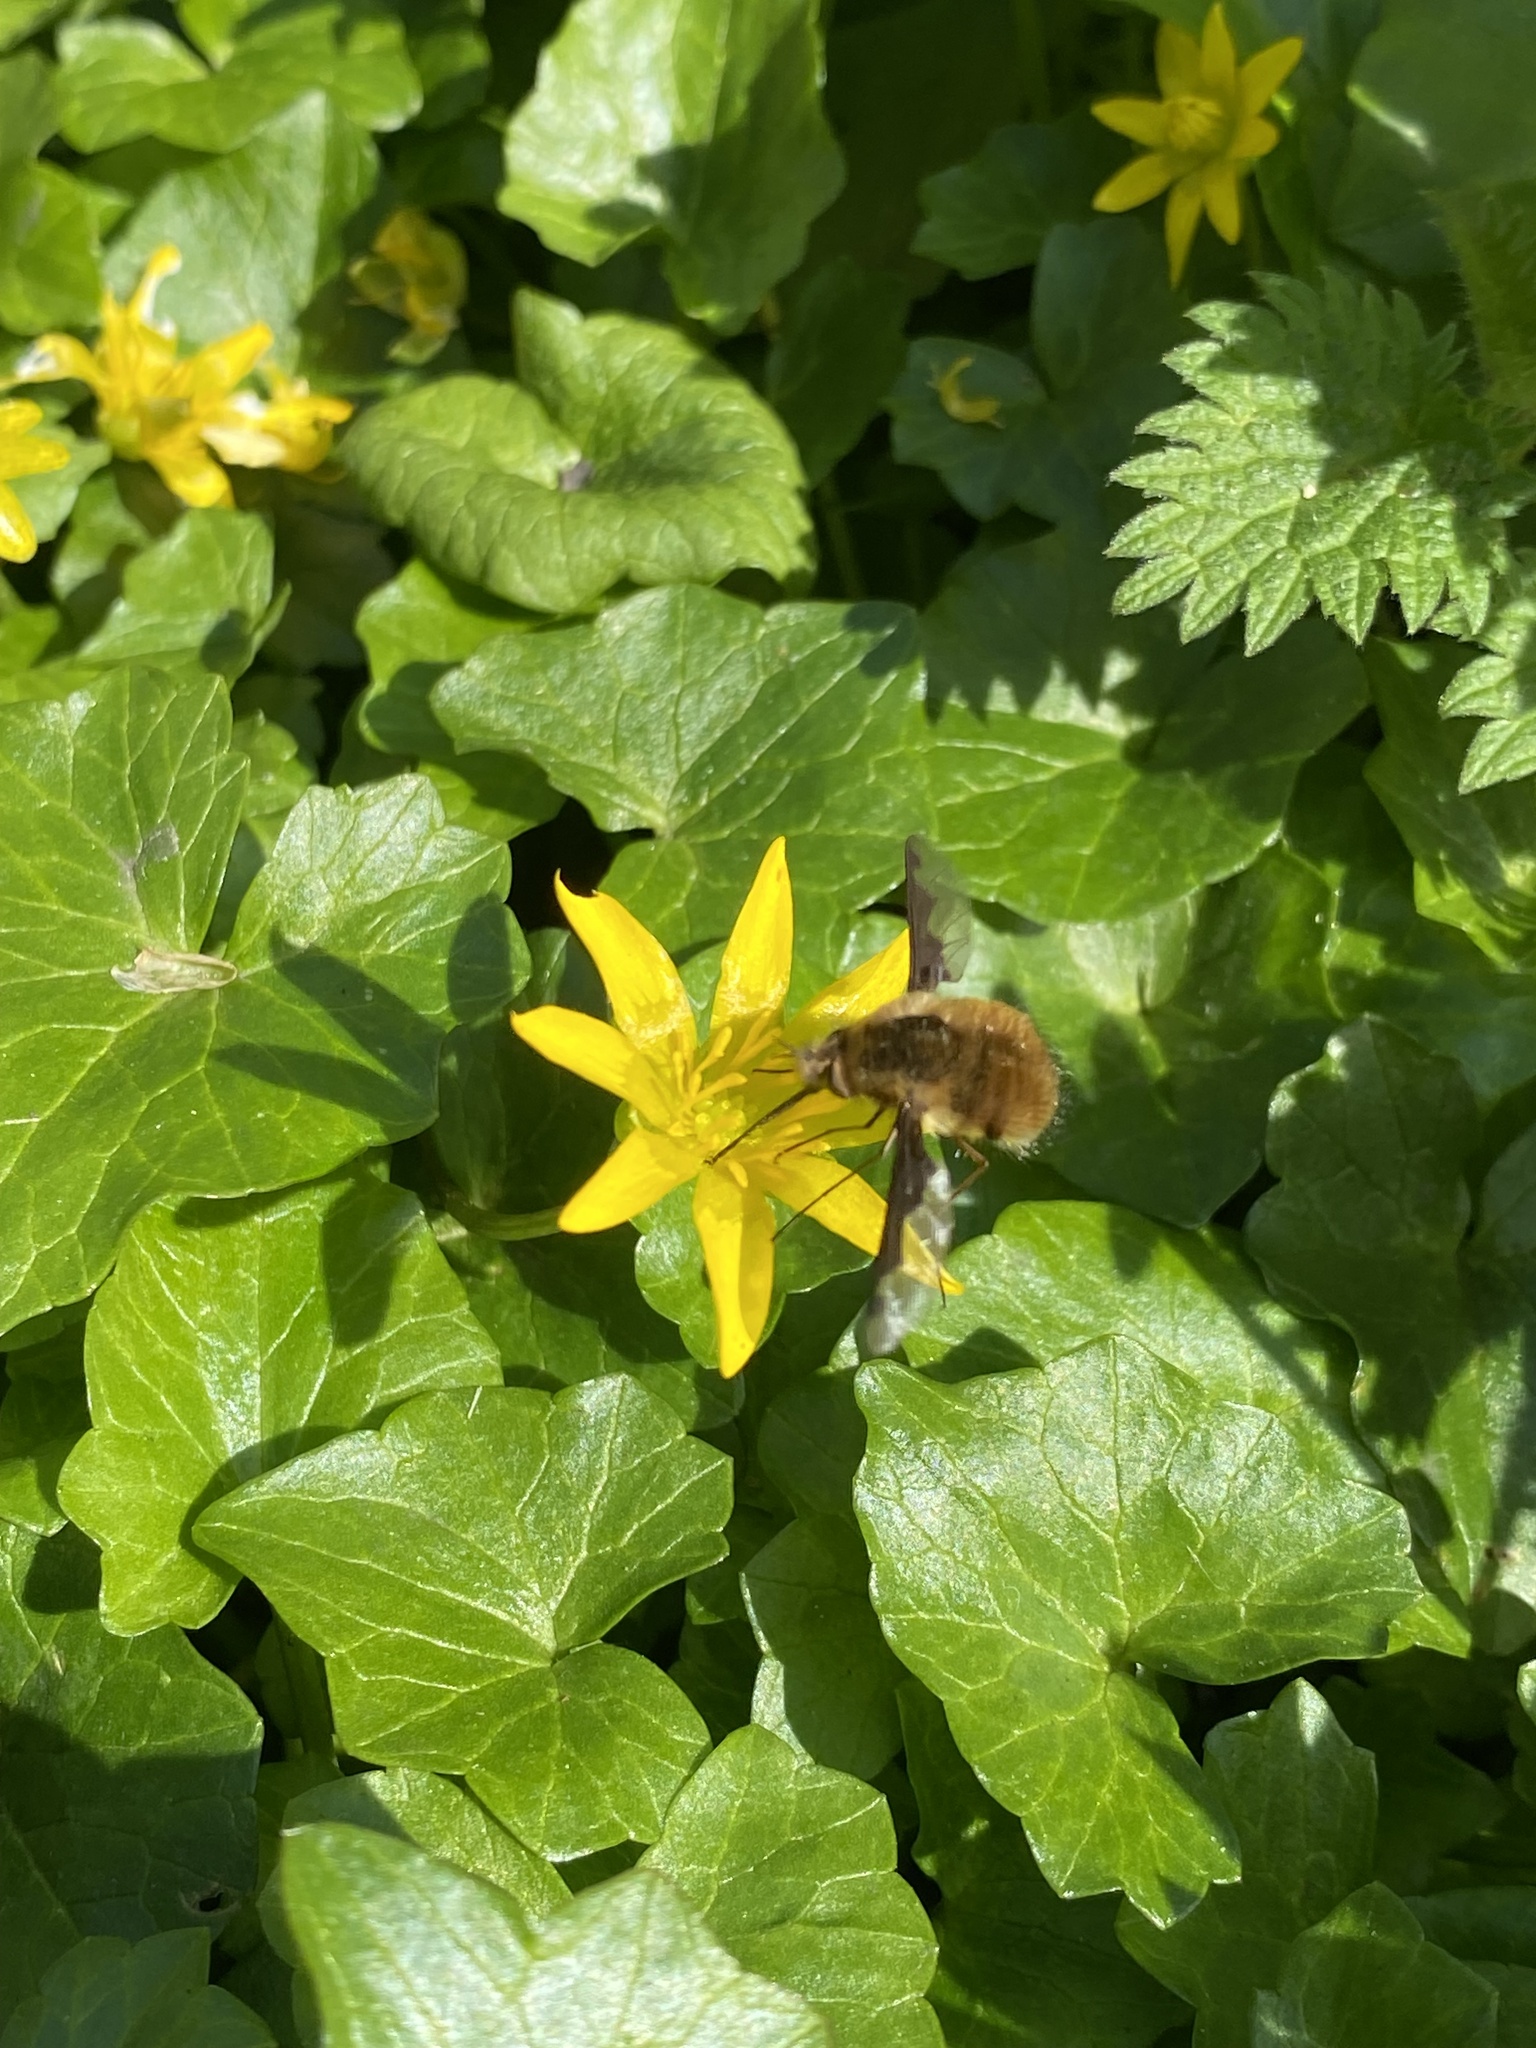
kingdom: Animalia
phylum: Arthropoda
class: Insecta
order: Diptera
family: Bombyliidae
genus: Bombylius
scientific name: Bombylius major
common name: Bee fly
